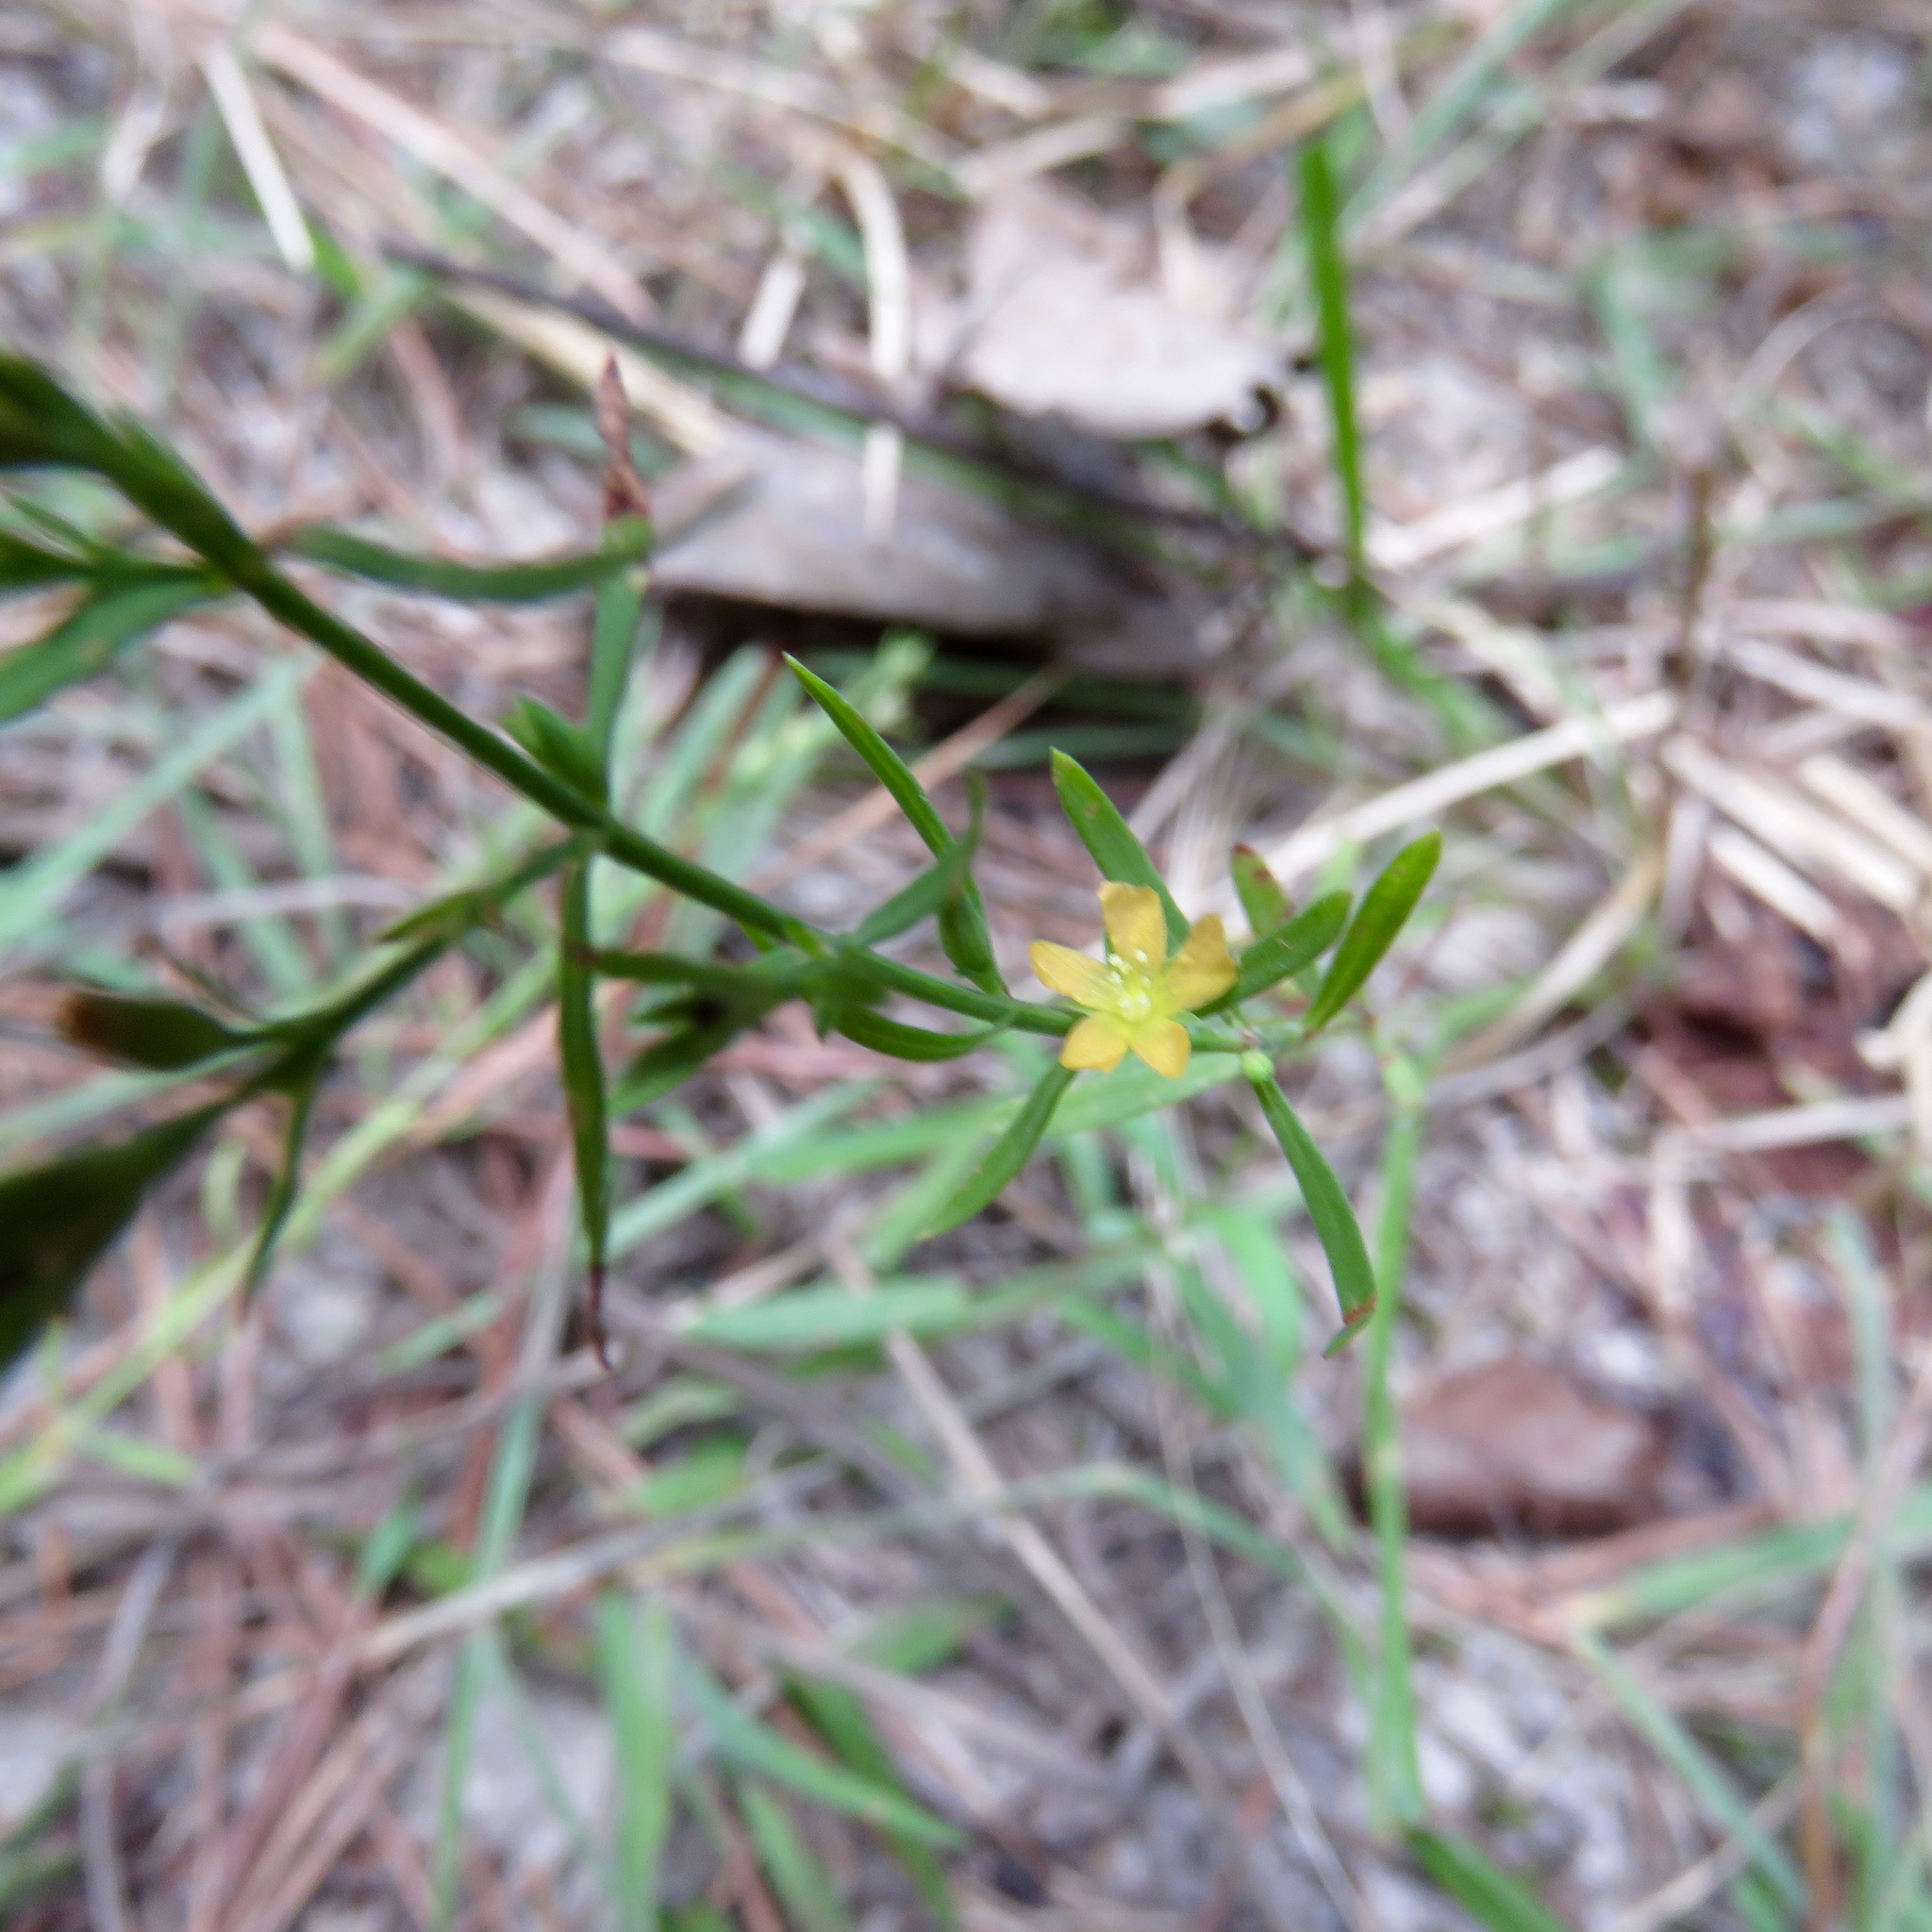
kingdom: Plantae
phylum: Tracheophyta
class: Magnoliopsida
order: Malpighiales
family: Hypericaceae
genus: Hypericum
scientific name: Hypericum drummondii
